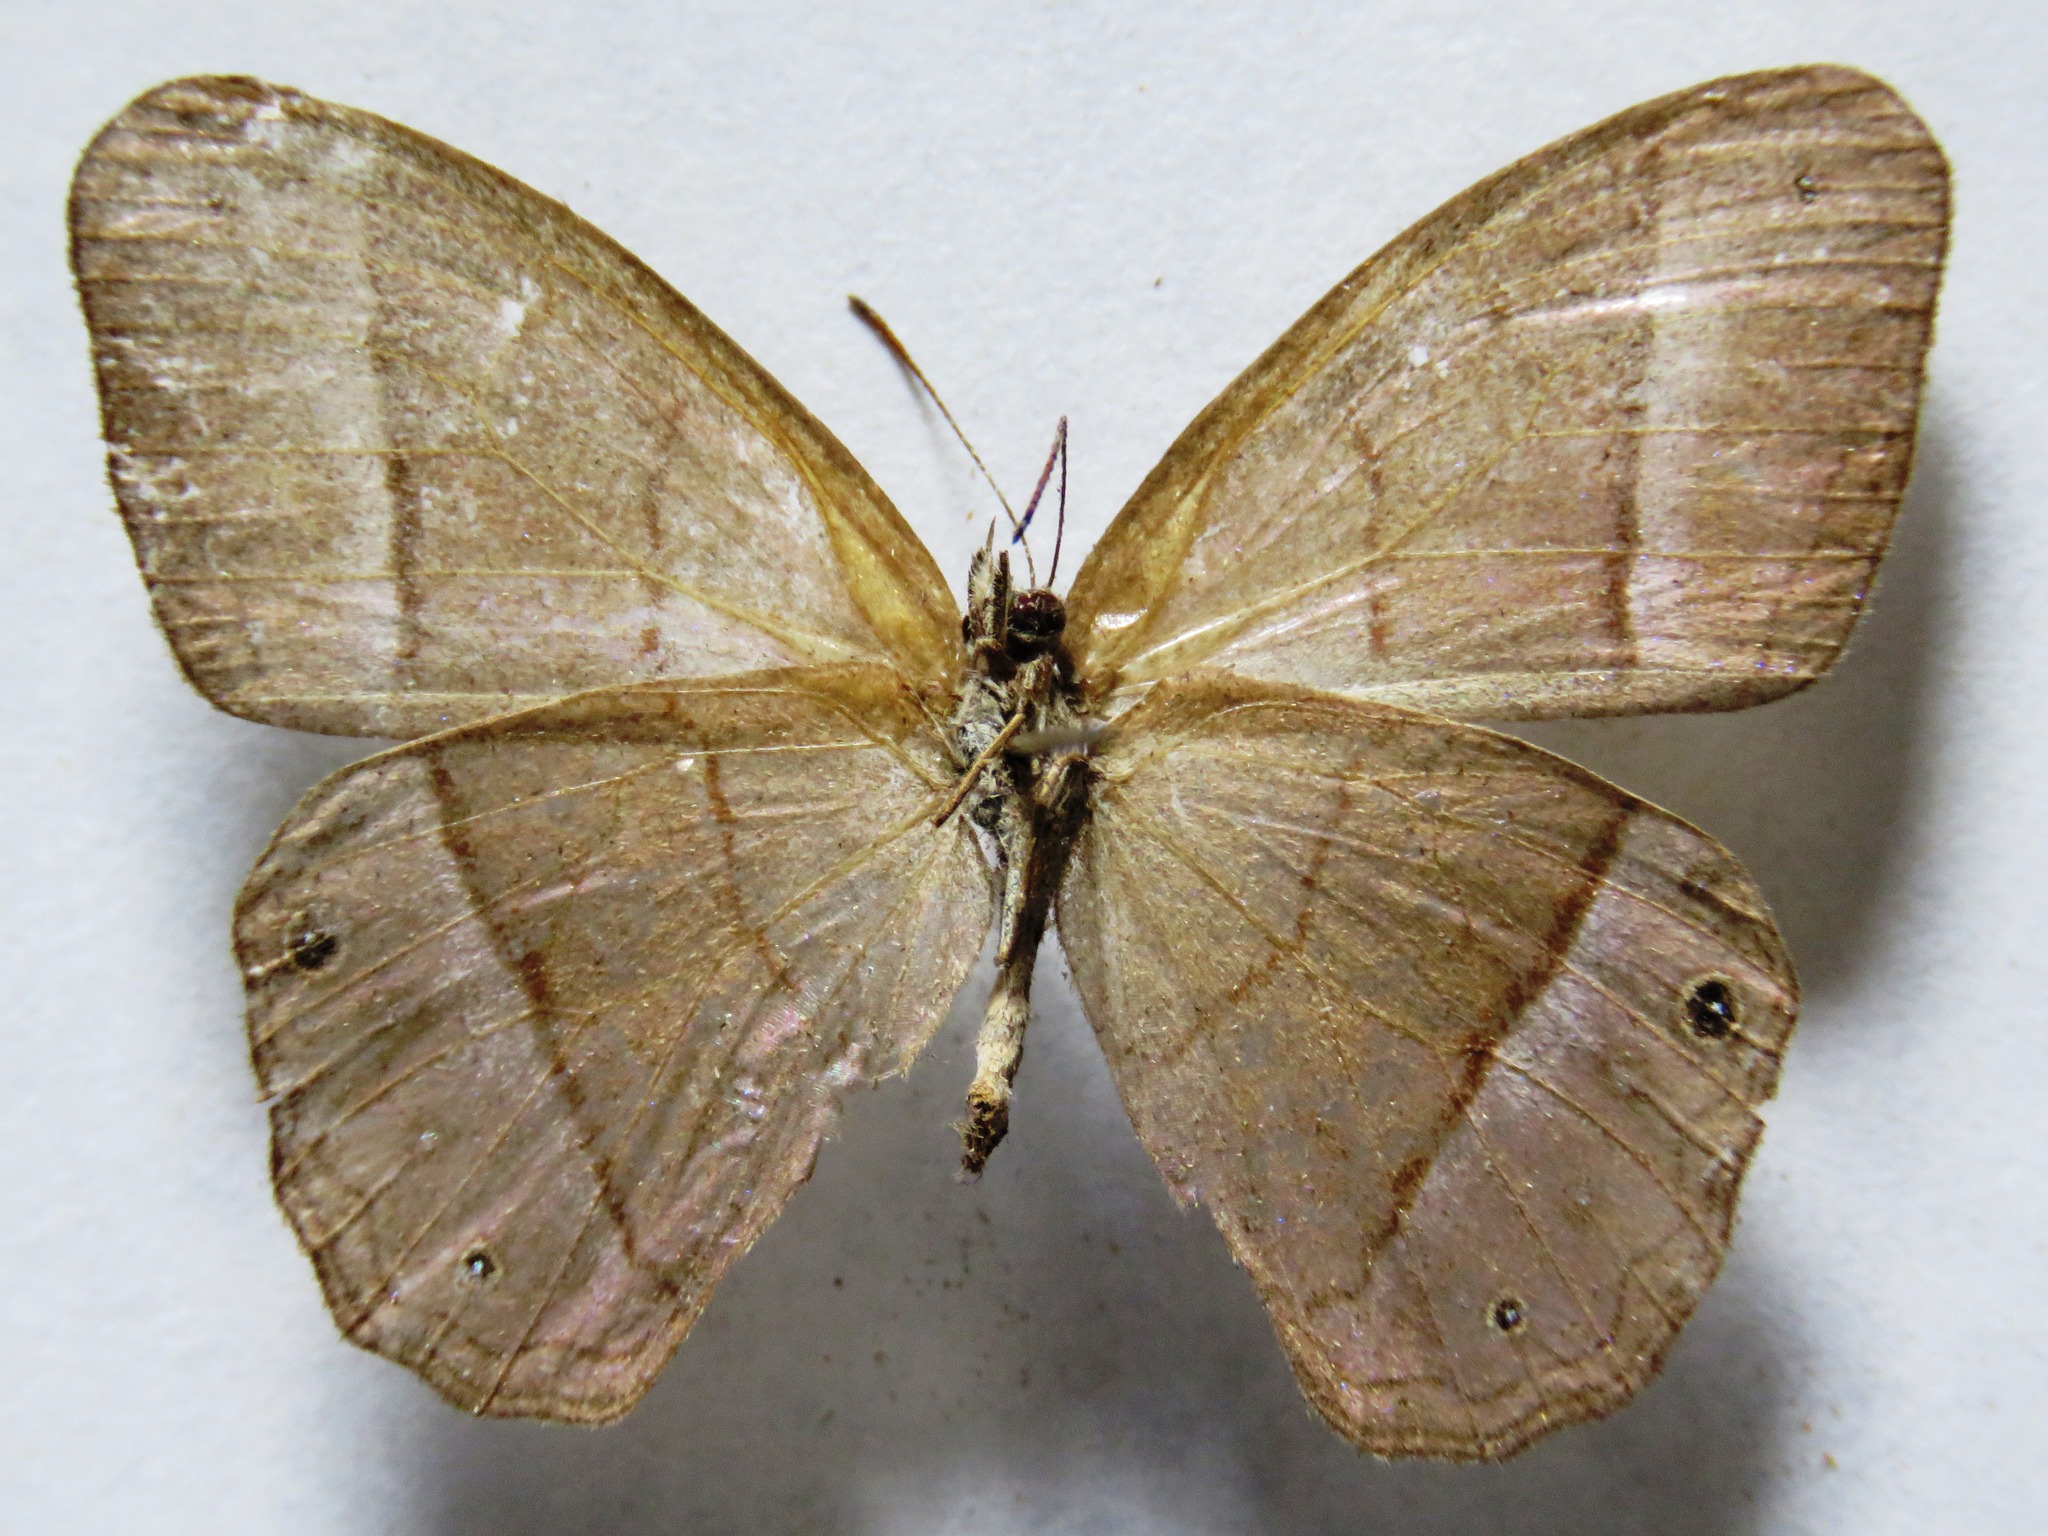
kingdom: Animalia
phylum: Arthropoda
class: Insecta
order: Lepidoptera
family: Nymphalidae
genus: Amiga
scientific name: Amiga sericeella
